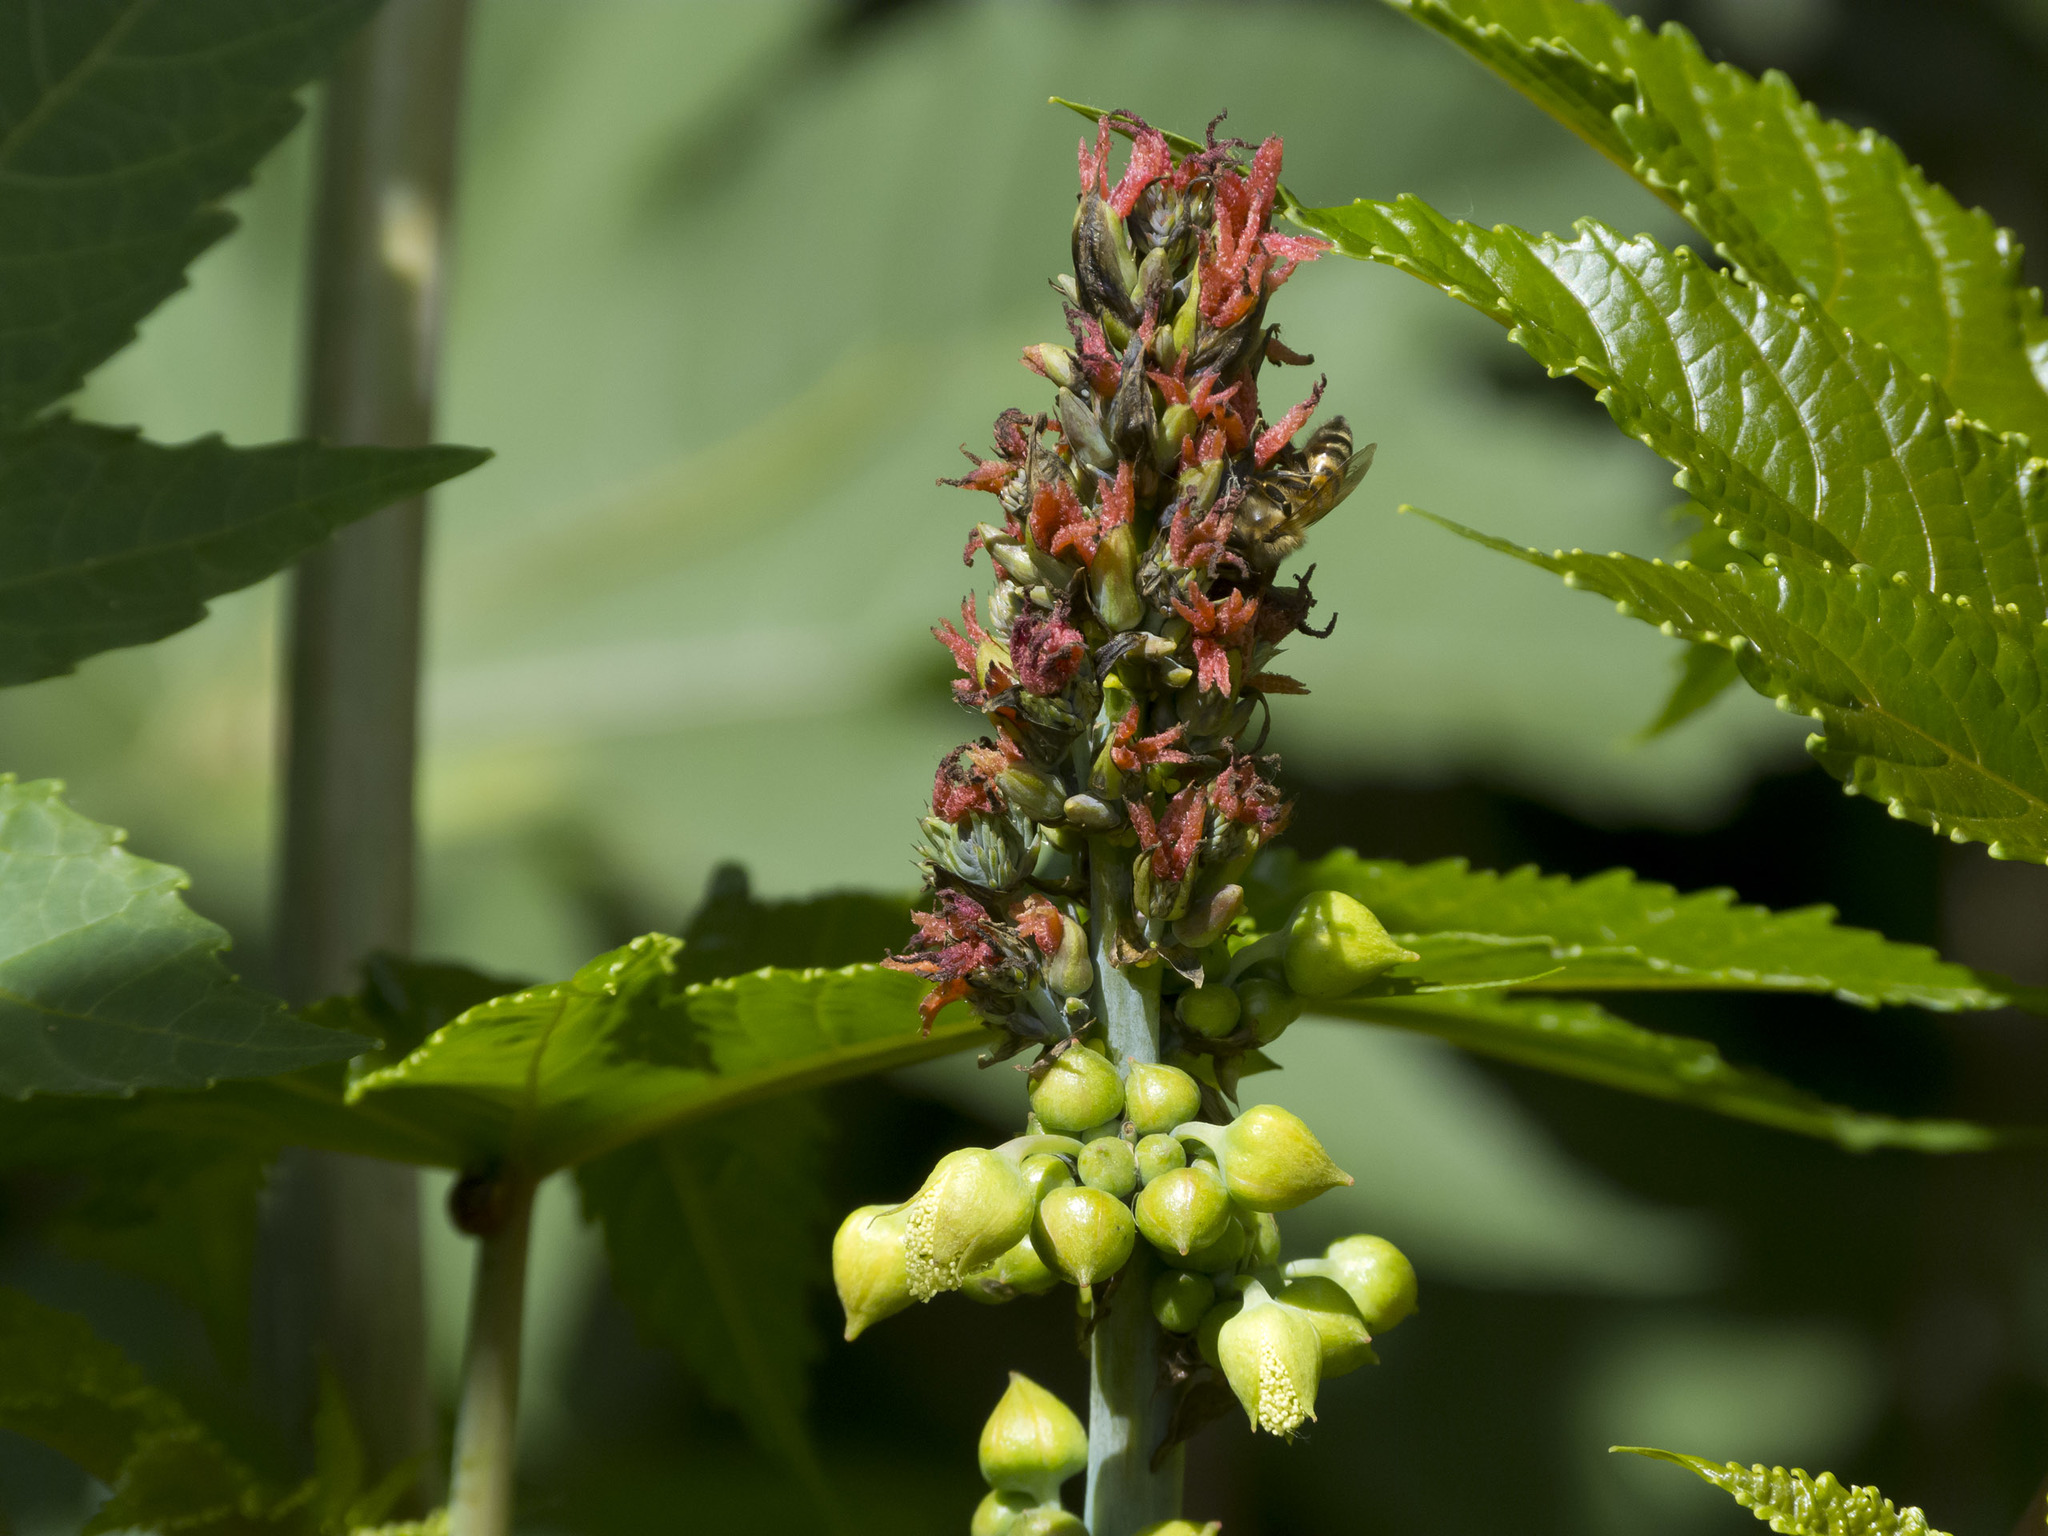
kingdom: Plantae
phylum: Tracheophyta
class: Magnoliopsida
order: Malpighiales
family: Euphorbiaceae
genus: Ricinus
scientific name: Ricinus communis
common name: Castor-oil-plant
